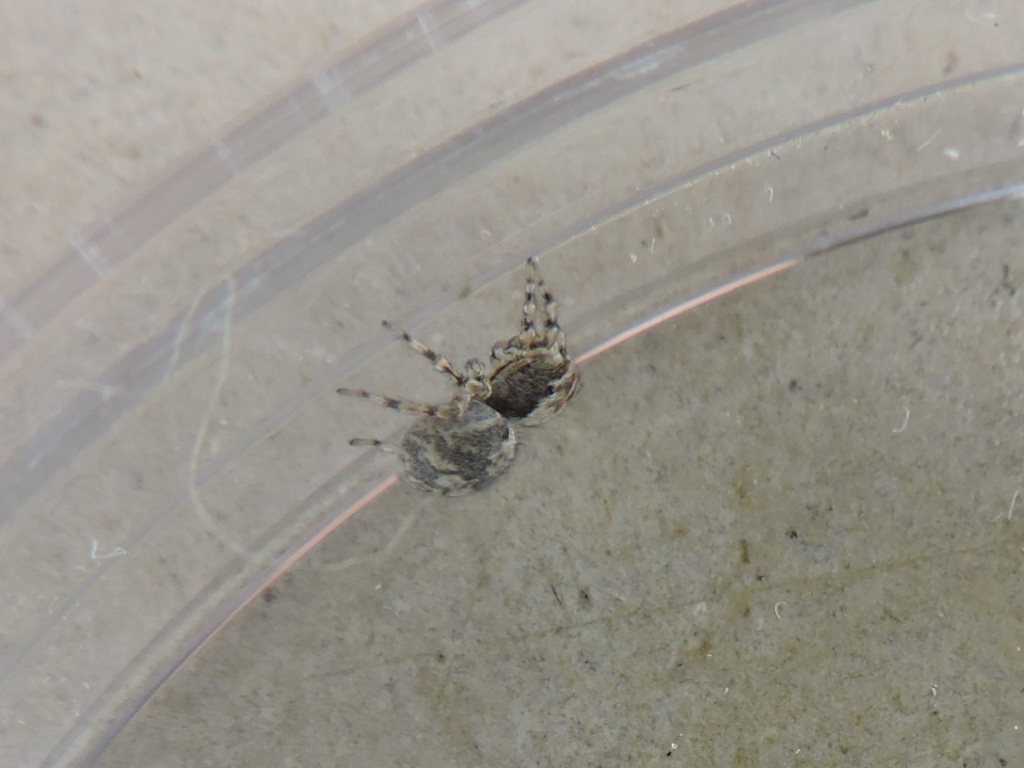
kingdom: Animalia
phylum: Arthropoda
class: Arachnida
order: Araneae
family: Salticidae
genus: Naphrys
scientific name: Naphrys pulex
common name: Flea jumping spider
